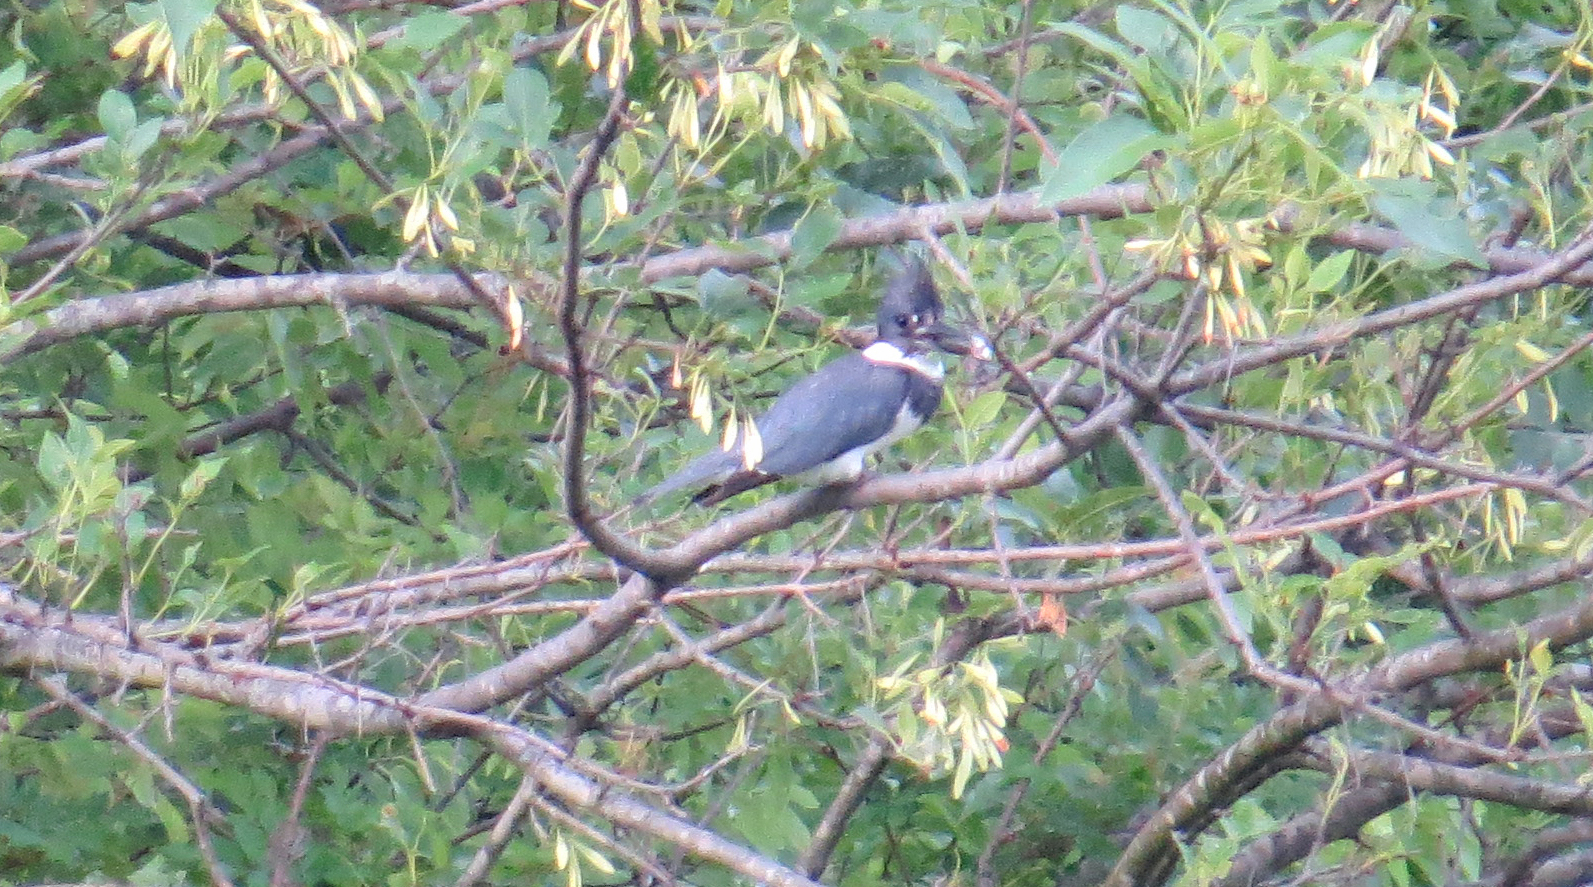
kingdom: Animalia
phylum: Chordata
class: Aves
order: Coraciiformes
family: Alcedinidae
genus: Megaceryle
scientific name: Megaceryle alcyon
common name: Belted kingfisher
